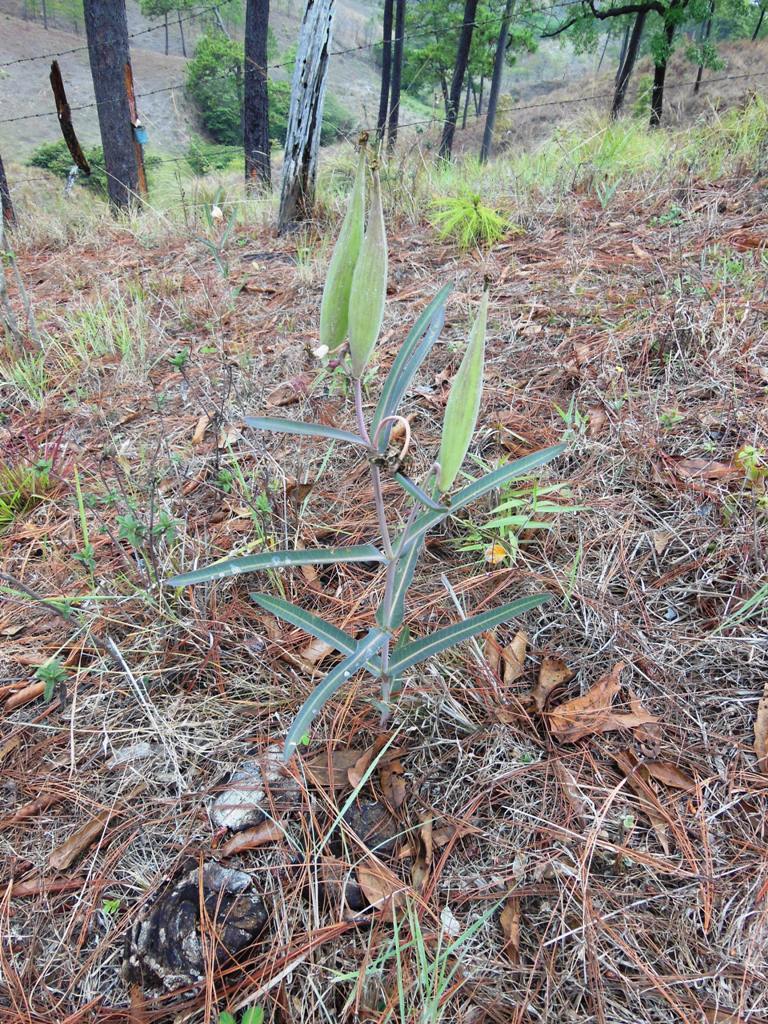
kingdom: Plantae
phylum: Tracheophyta
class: Magnoliopsida
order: Gentianales
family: Apocynaceae
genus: Asclepias
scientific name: Asclepias glaucescens
